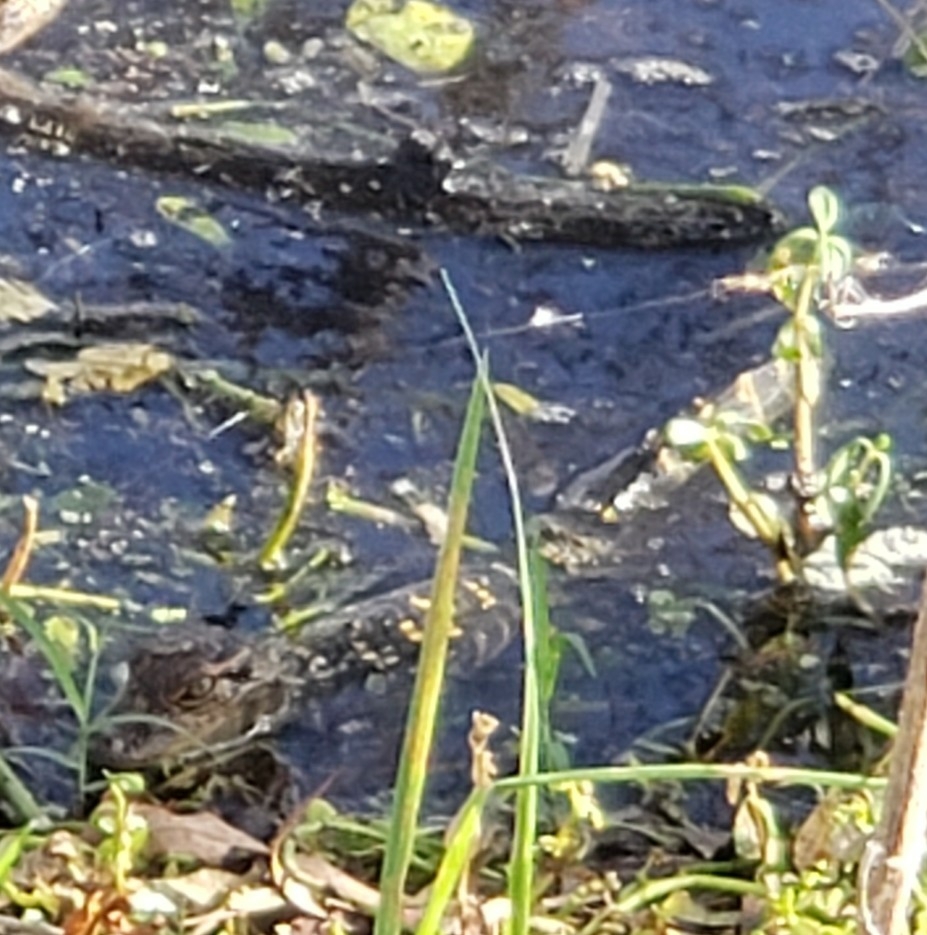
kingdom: Animalia
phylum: Chordata
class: Crocodylia
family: Alligatoridae
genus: Alligator
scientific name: Alligator mississippiensis
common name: American alligator
